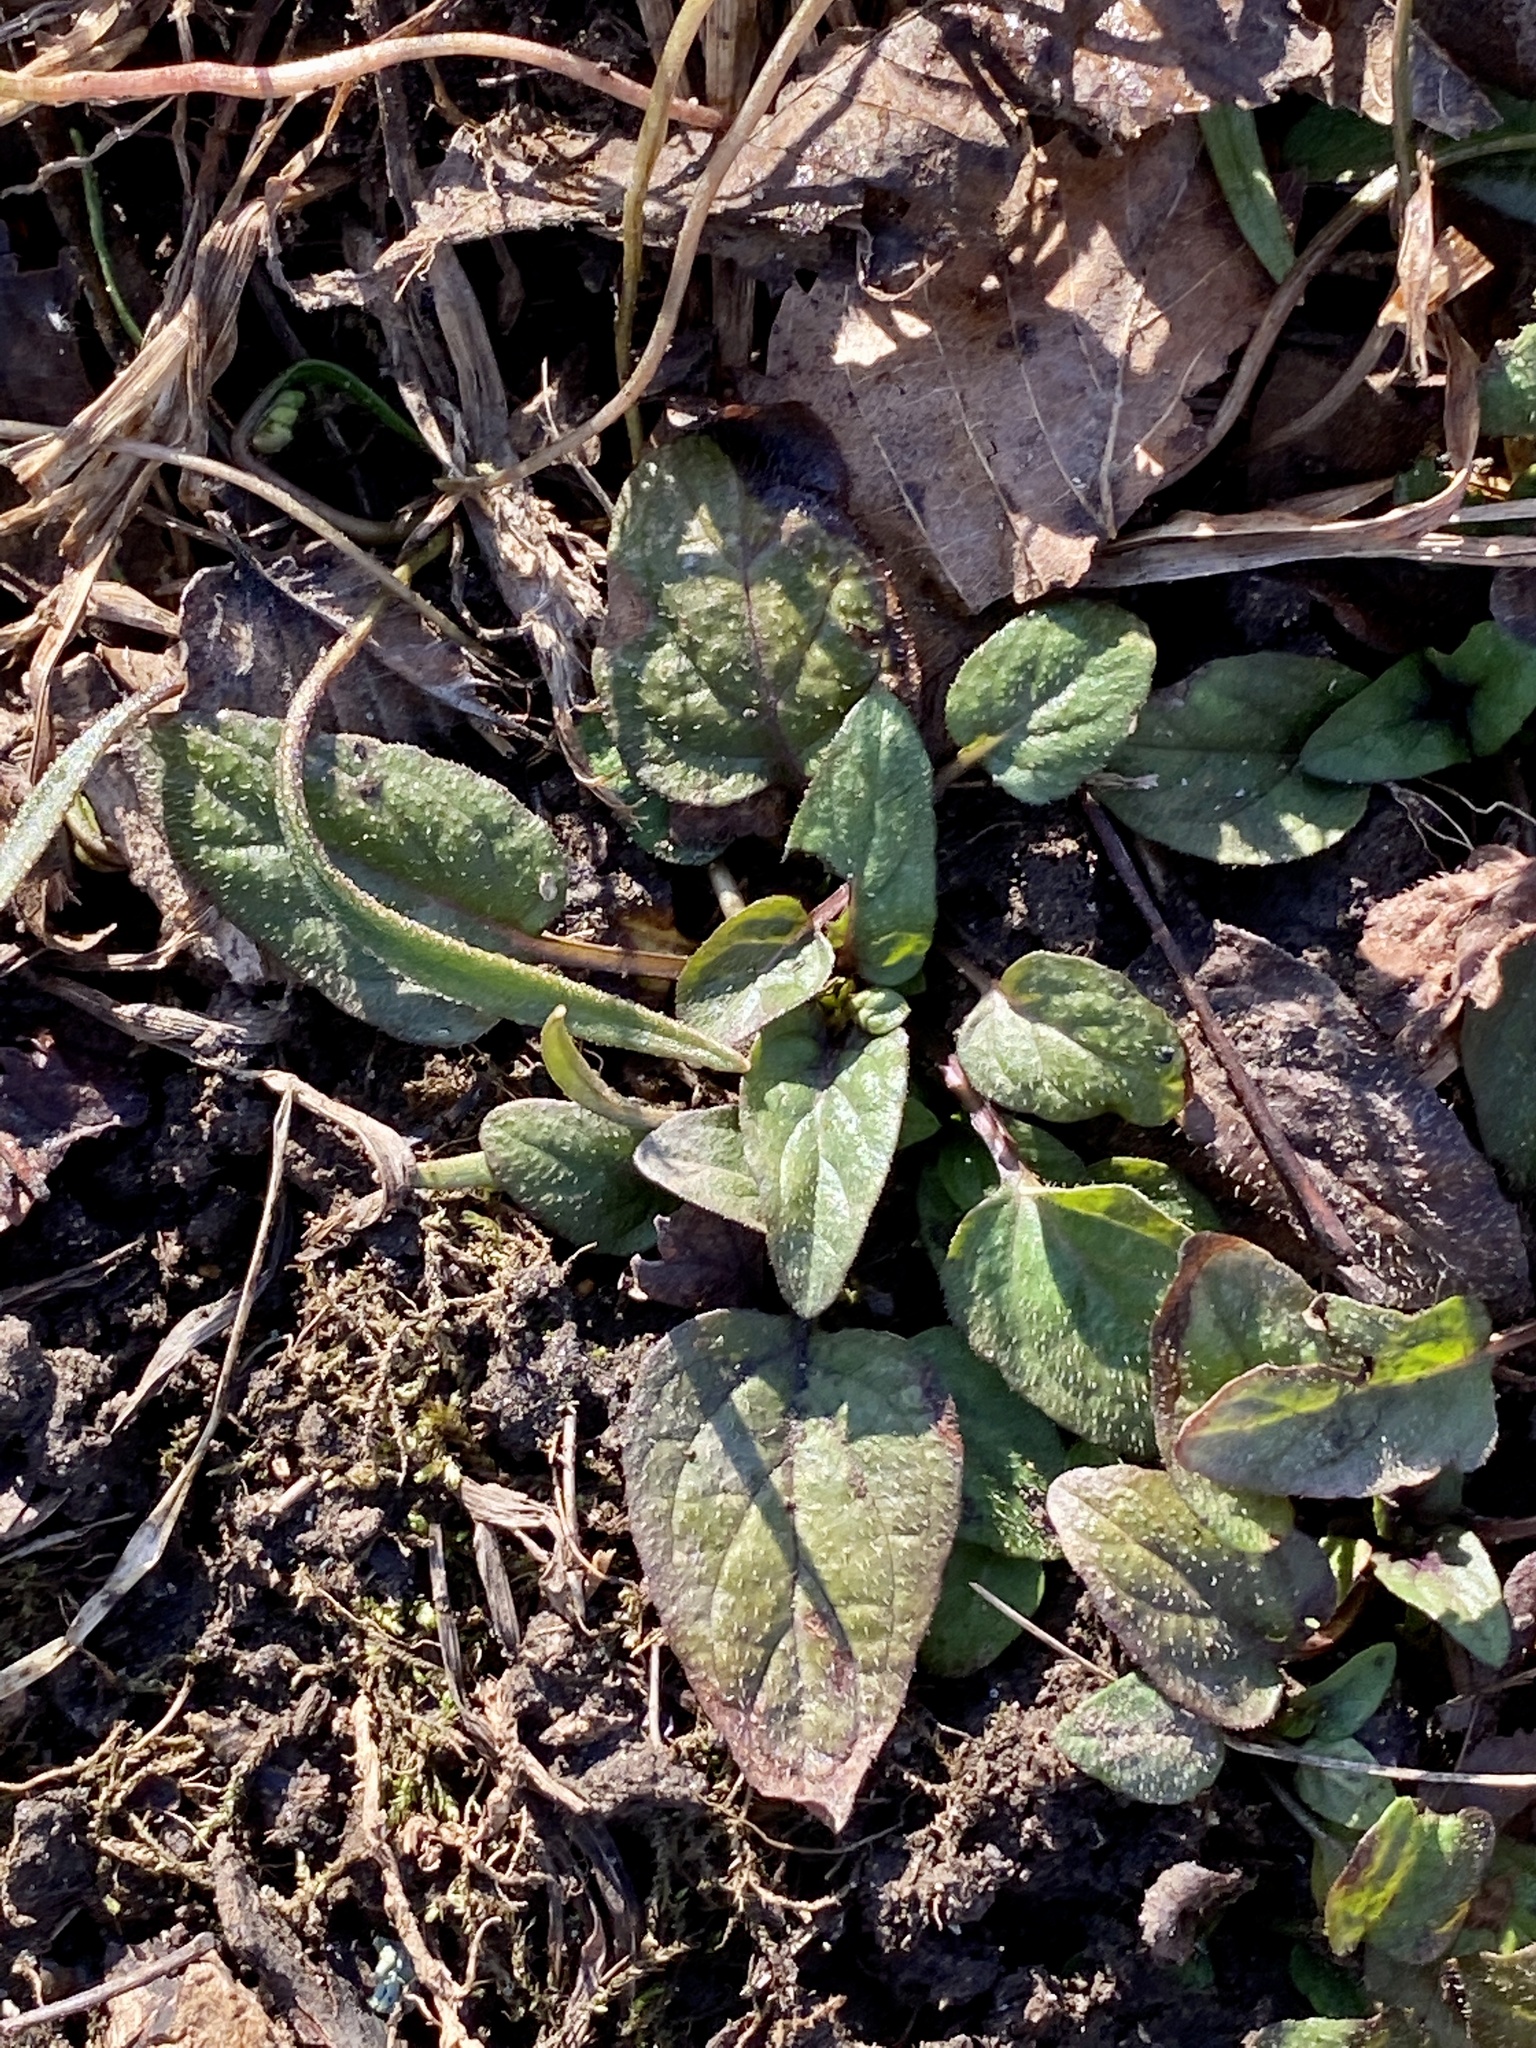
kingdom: Plantae
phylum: Tracheophyta
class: Magnoliopsida
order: Lamiales
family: Lamiaceae
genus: Prunella
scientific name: Prunella vulgaris
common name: Heal-all
